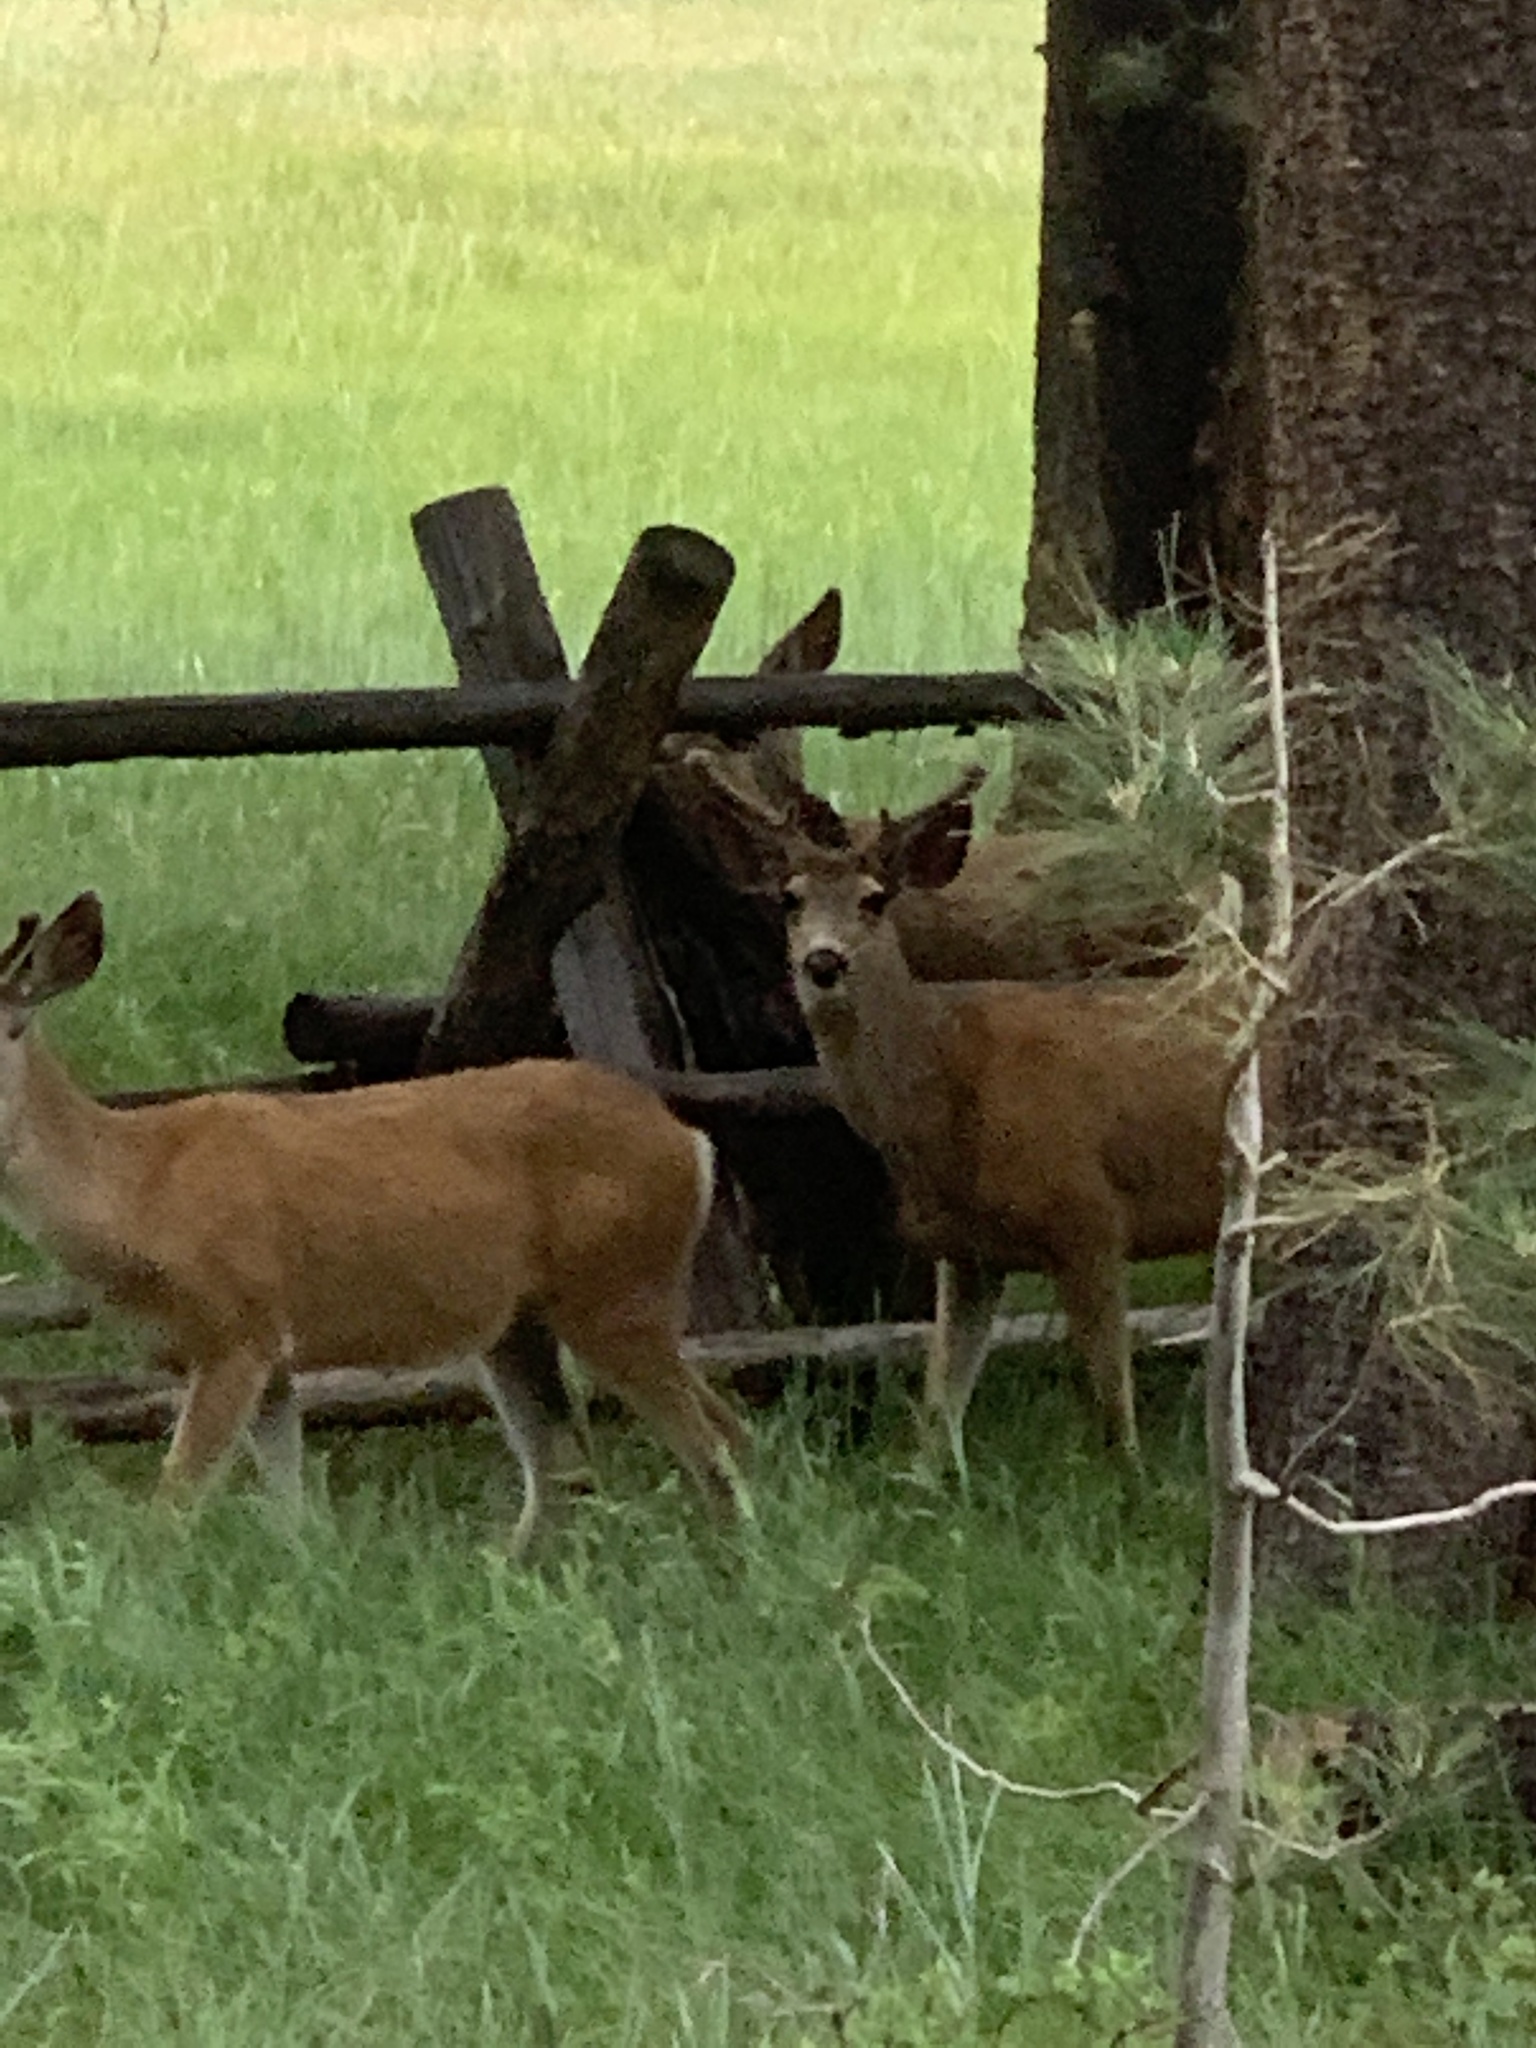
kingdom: Animalia
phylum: Chordata
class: Mammalia
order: Artiodactyla
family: Cervidae
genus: Odocoileus
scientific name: Odocoileus hemionus
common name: Mule deer
